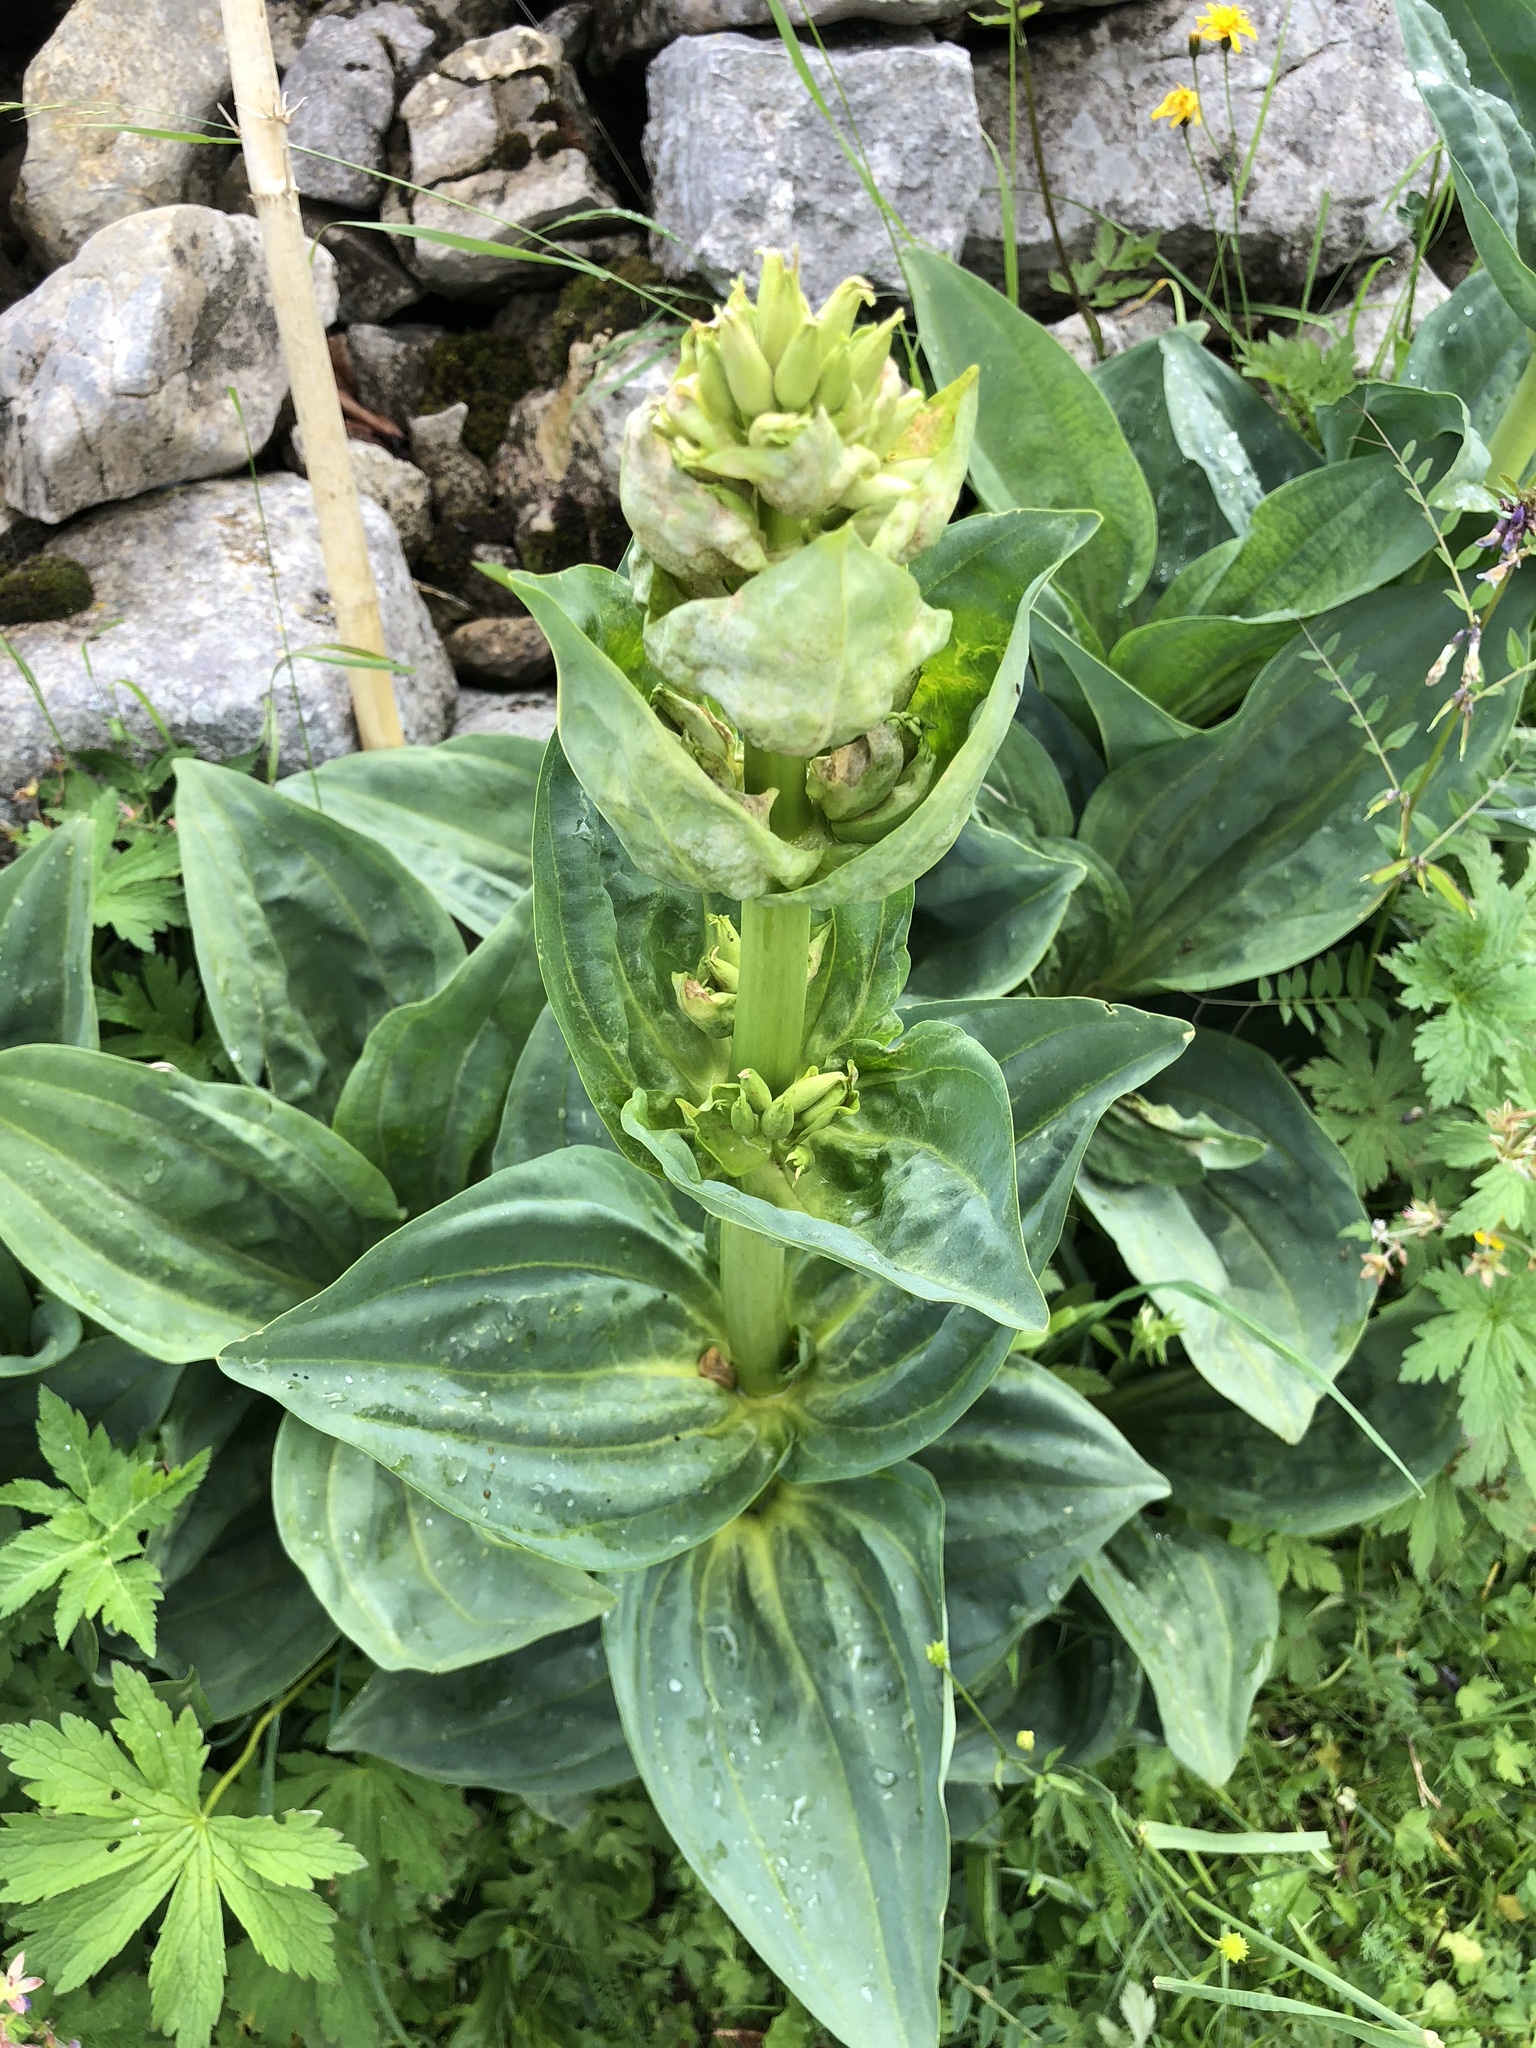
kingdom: Plantae
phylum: Tracheophyta
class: Magnoliopsida
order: Gentianales
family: Gentianaceae
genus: Gentiana
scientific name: Gentiana lutea
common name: Great yellow gentian
